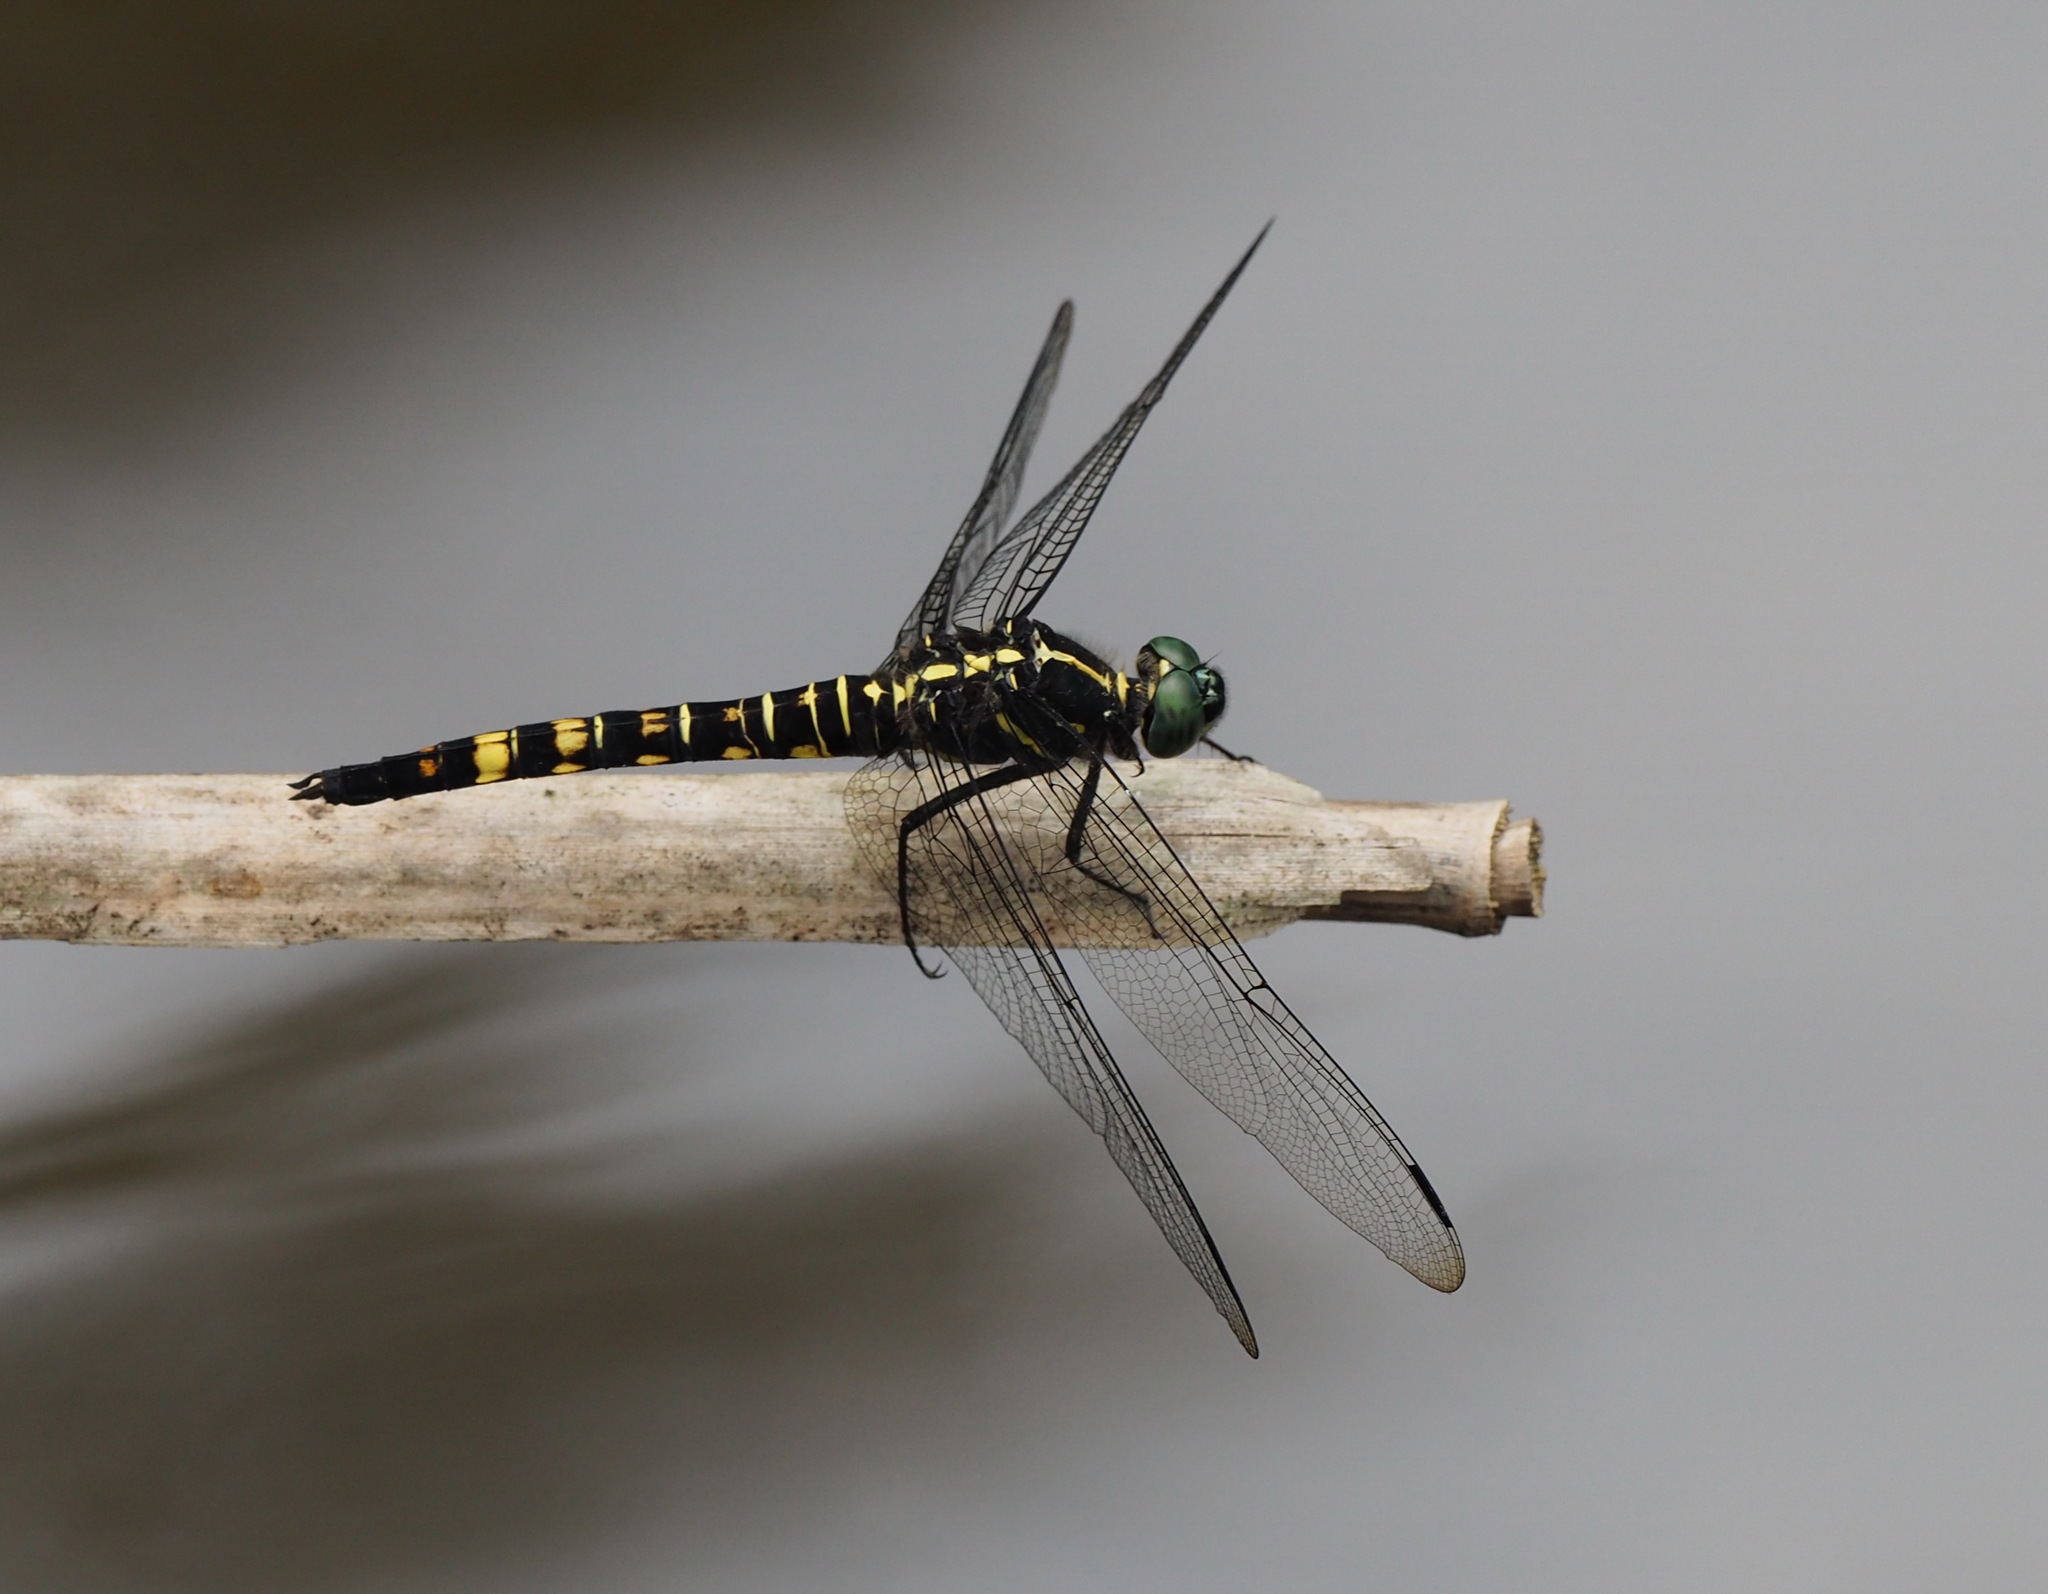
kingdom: Animalia
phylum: Arthropoda
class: Insecta
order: Odonata
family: Libellulidae
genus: Onychothemis
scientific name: Onychothemis tonkinensis
